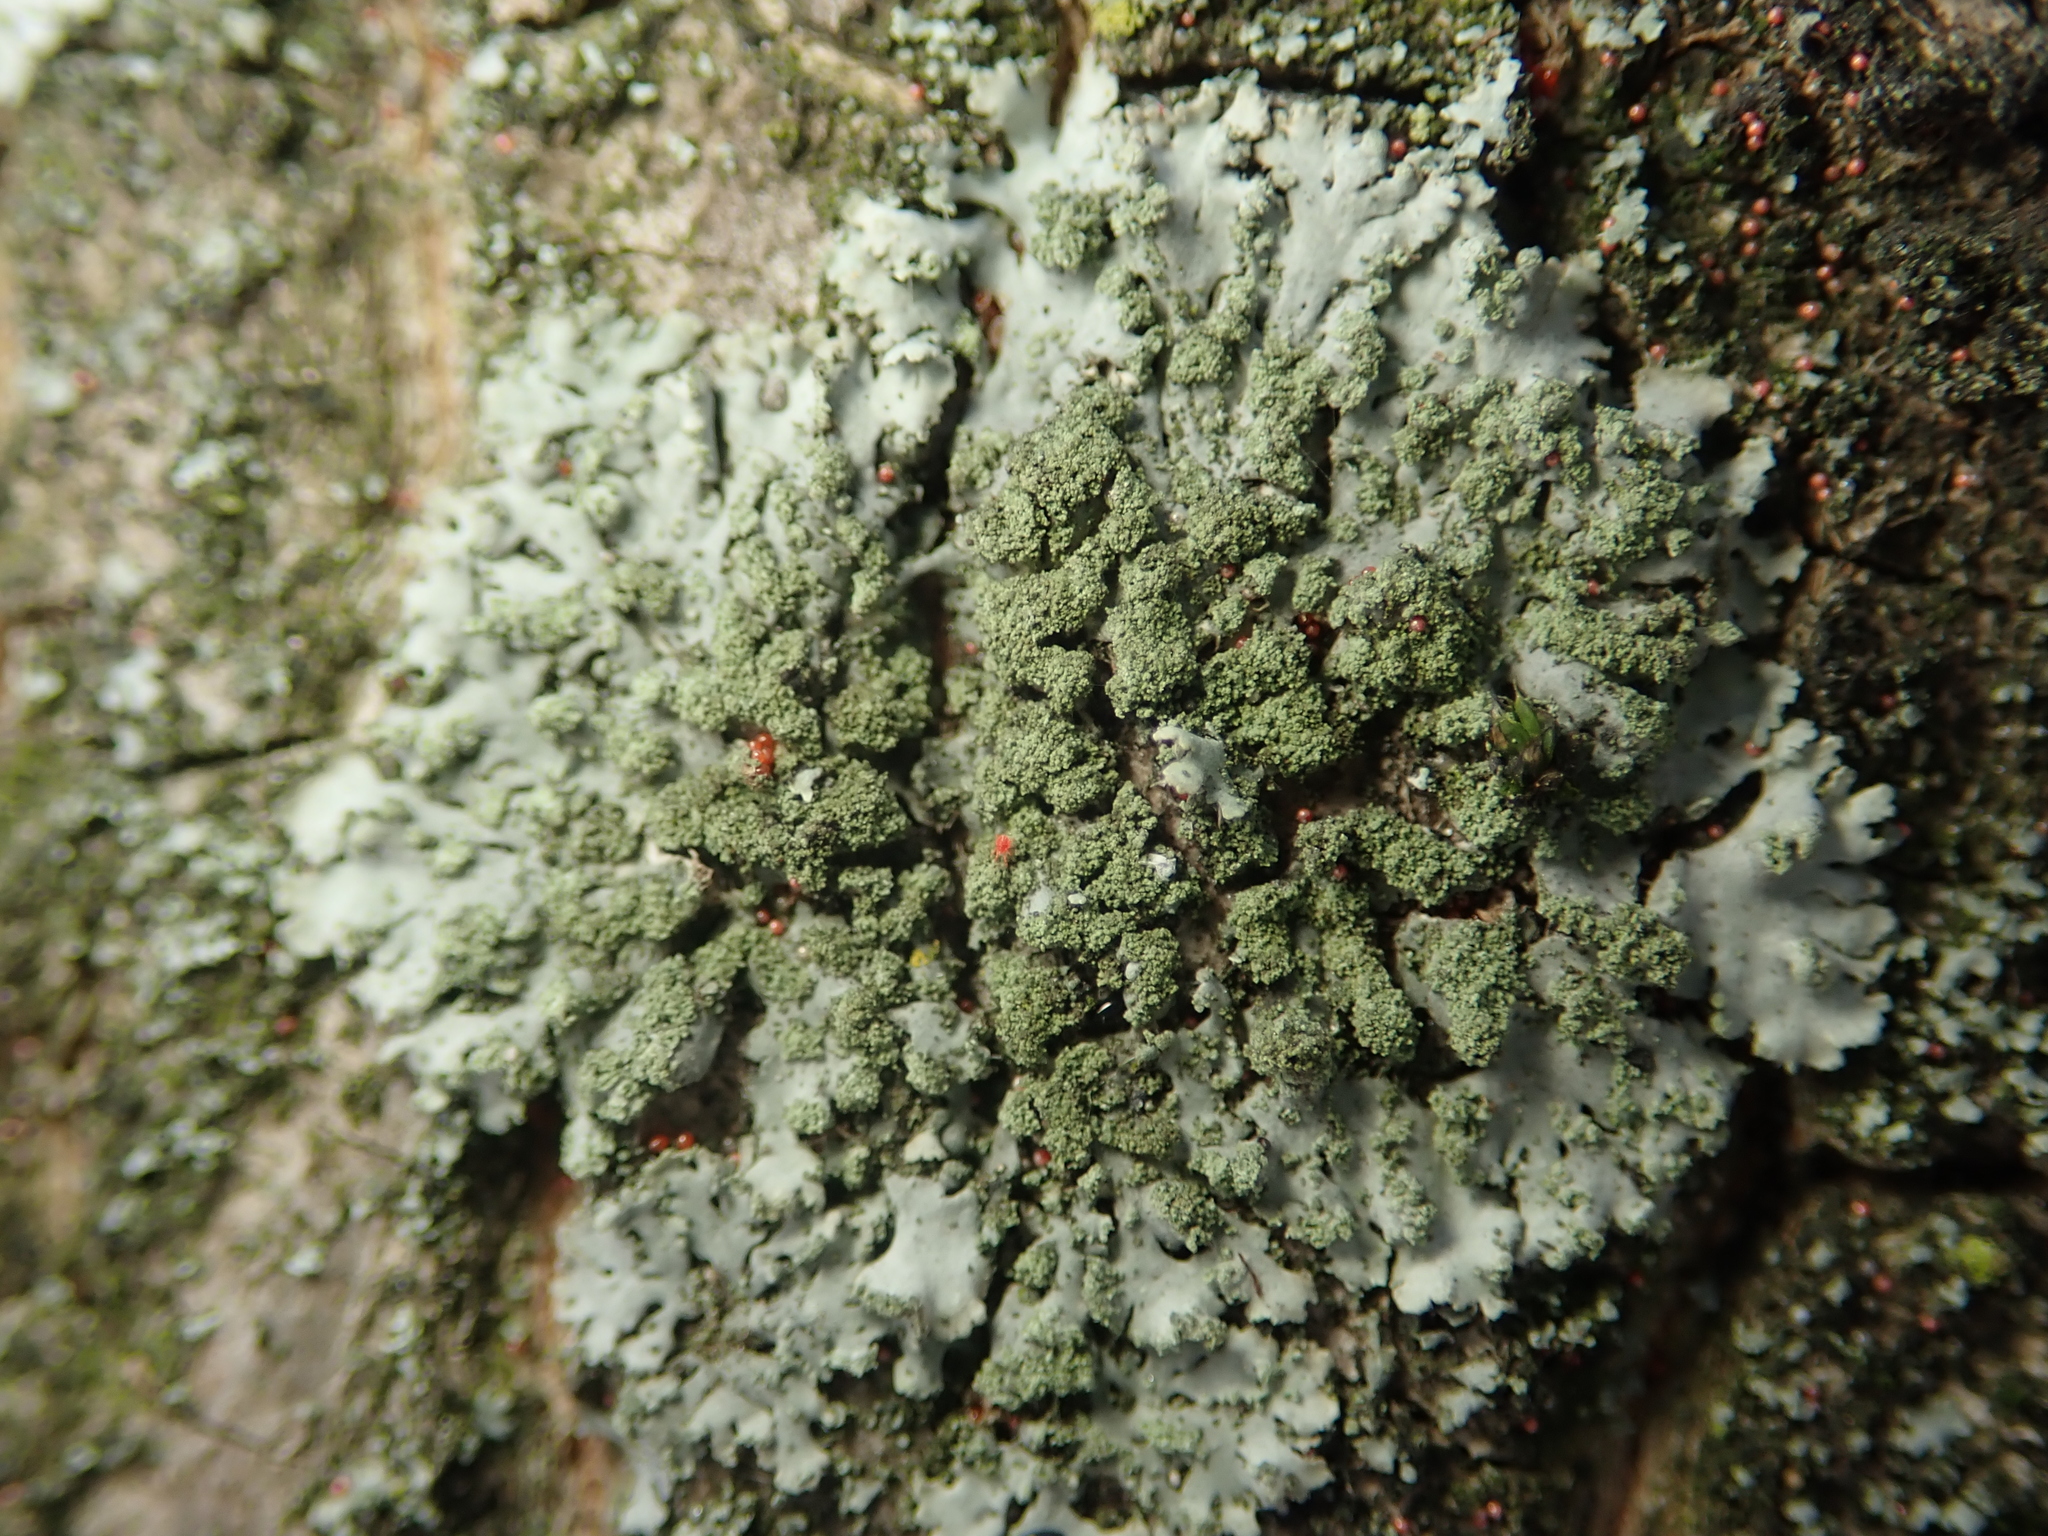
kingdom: Fungi
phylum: Ascomycota
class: Lecanoromycetes
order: Caliciales
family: Physciaceae
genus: Phaeophyscia
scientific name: Phaeophyscia orbicularis
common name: Mealy shadow lichen
